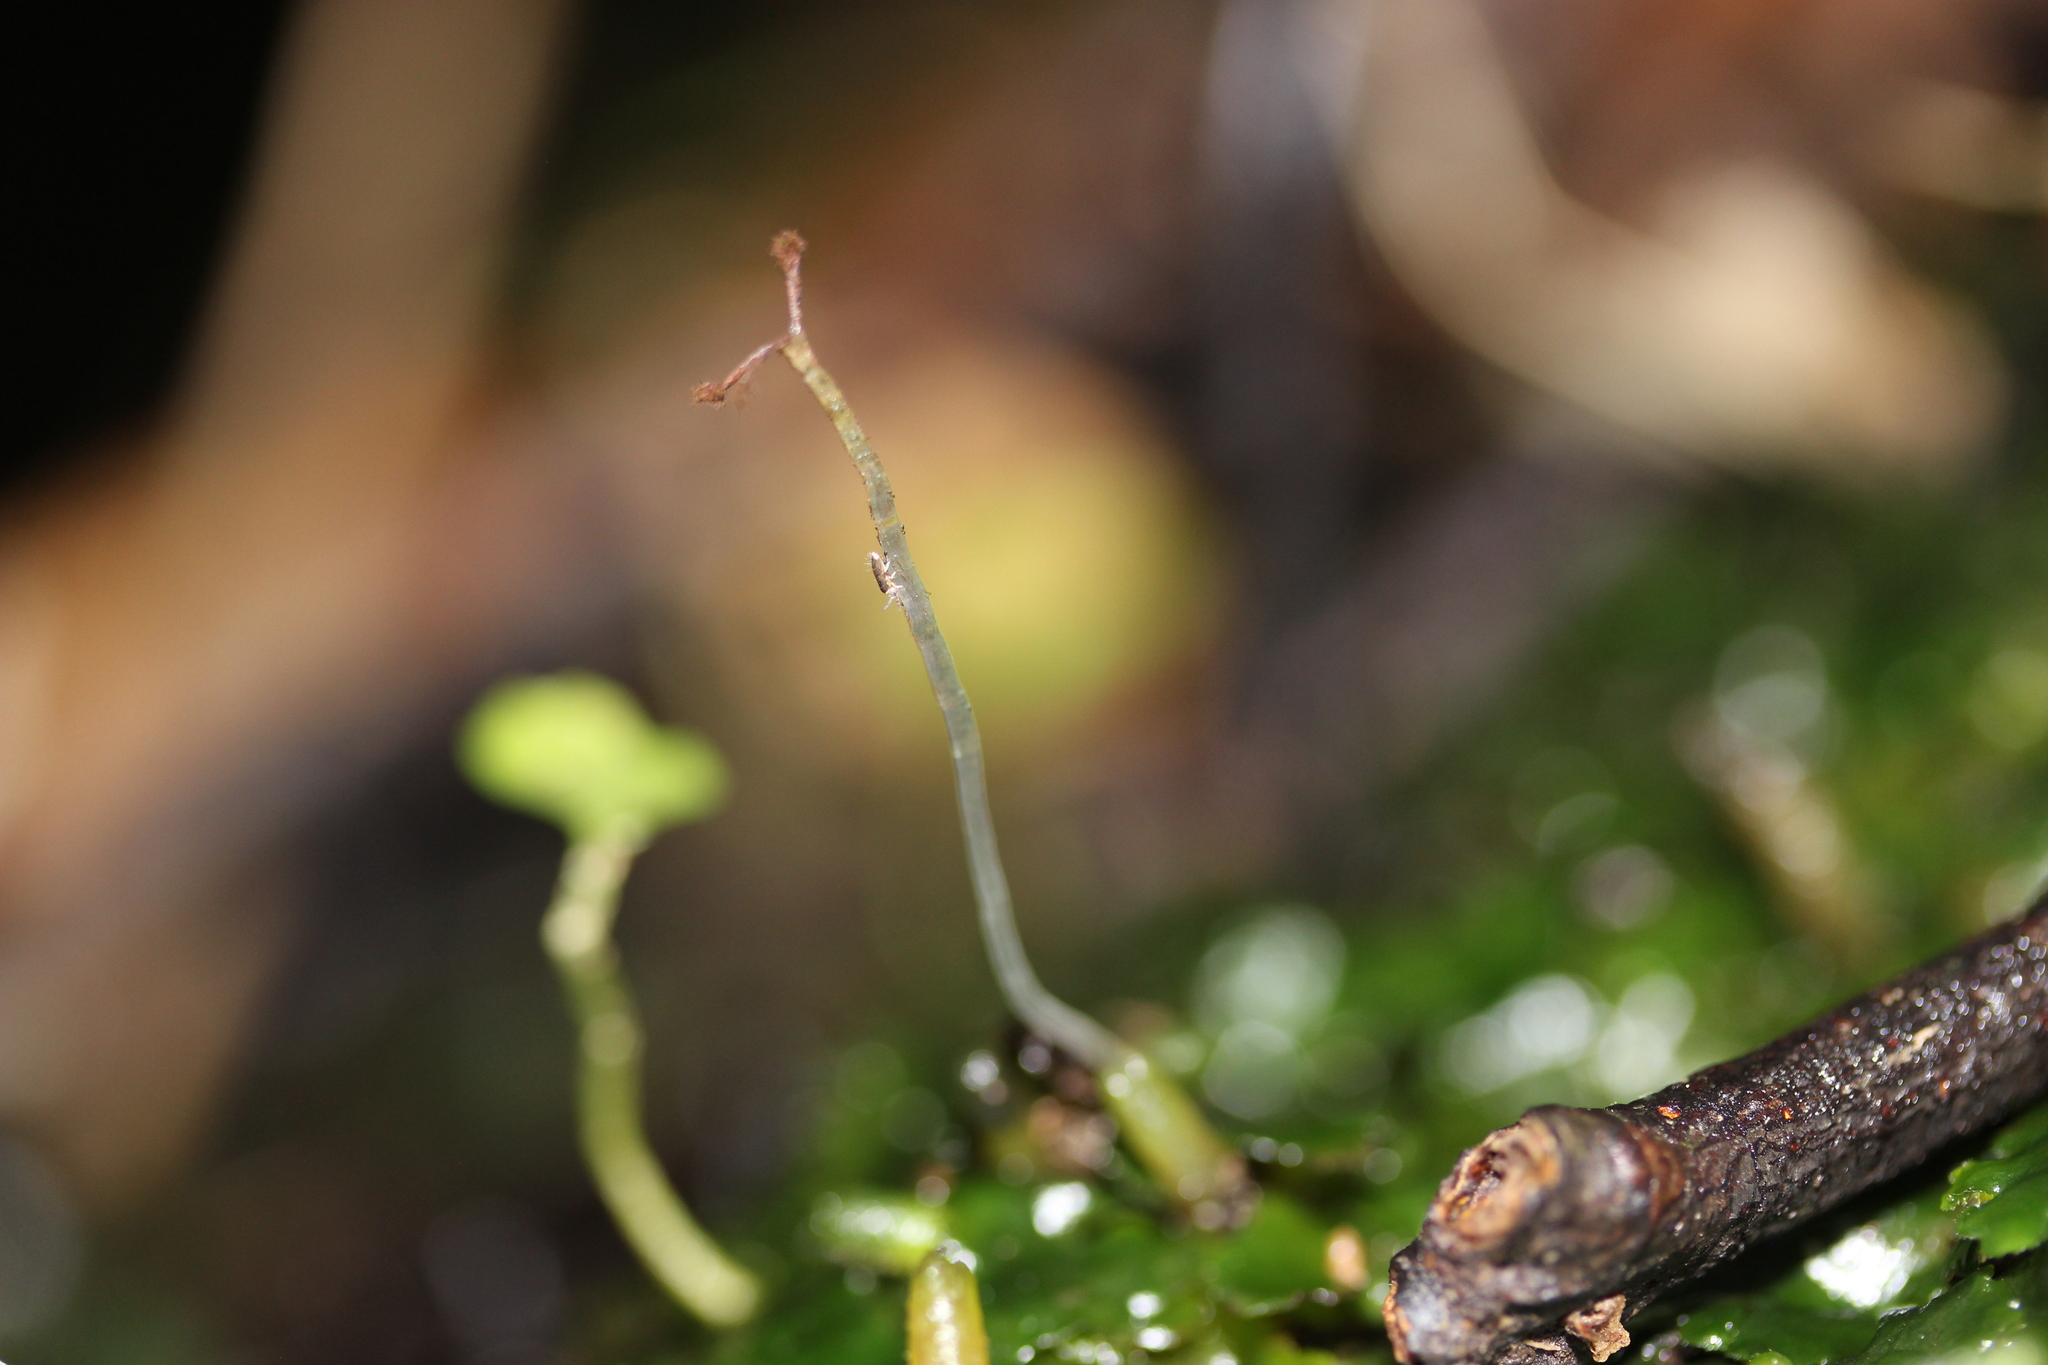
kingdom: Plantae
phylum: Marchantiophyta
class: Jungermanniopsida
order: Metzgeriales
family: Aneuraceae
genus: Lobatiriccardia
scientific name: Lobatiriccardia alterniloba
